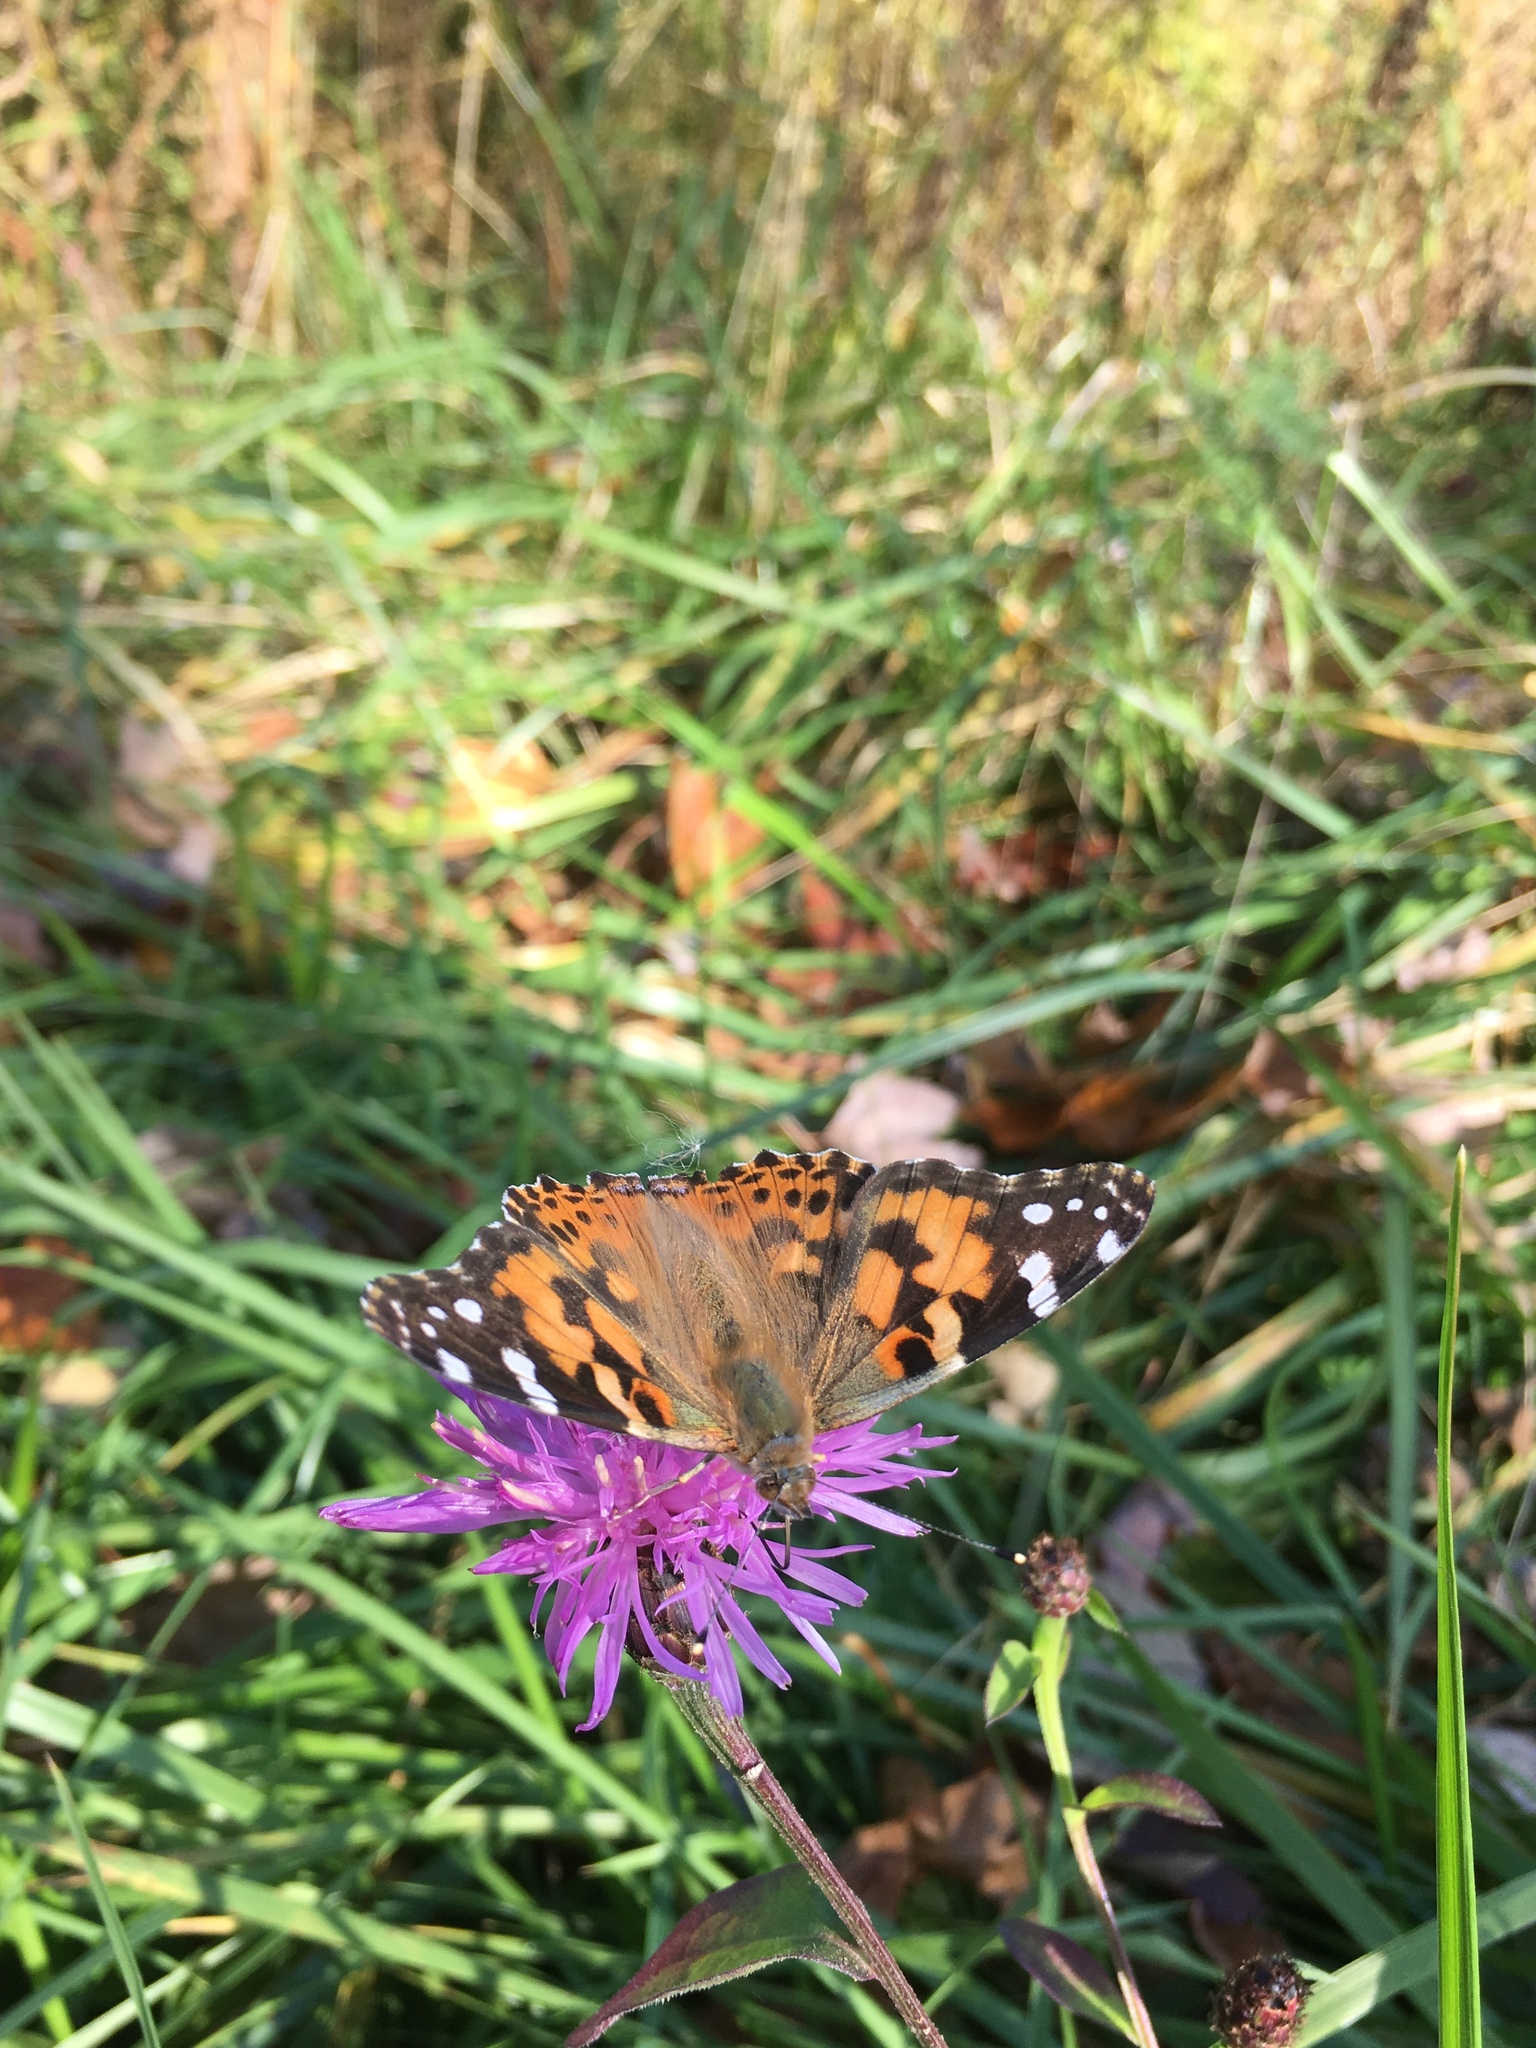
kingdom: Animalia
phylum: Arthropoda
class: Insecta
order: Lepidoptera
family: Nymphalidae
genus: Vanessa
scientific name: Vanessa cardui
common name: Painted lady
